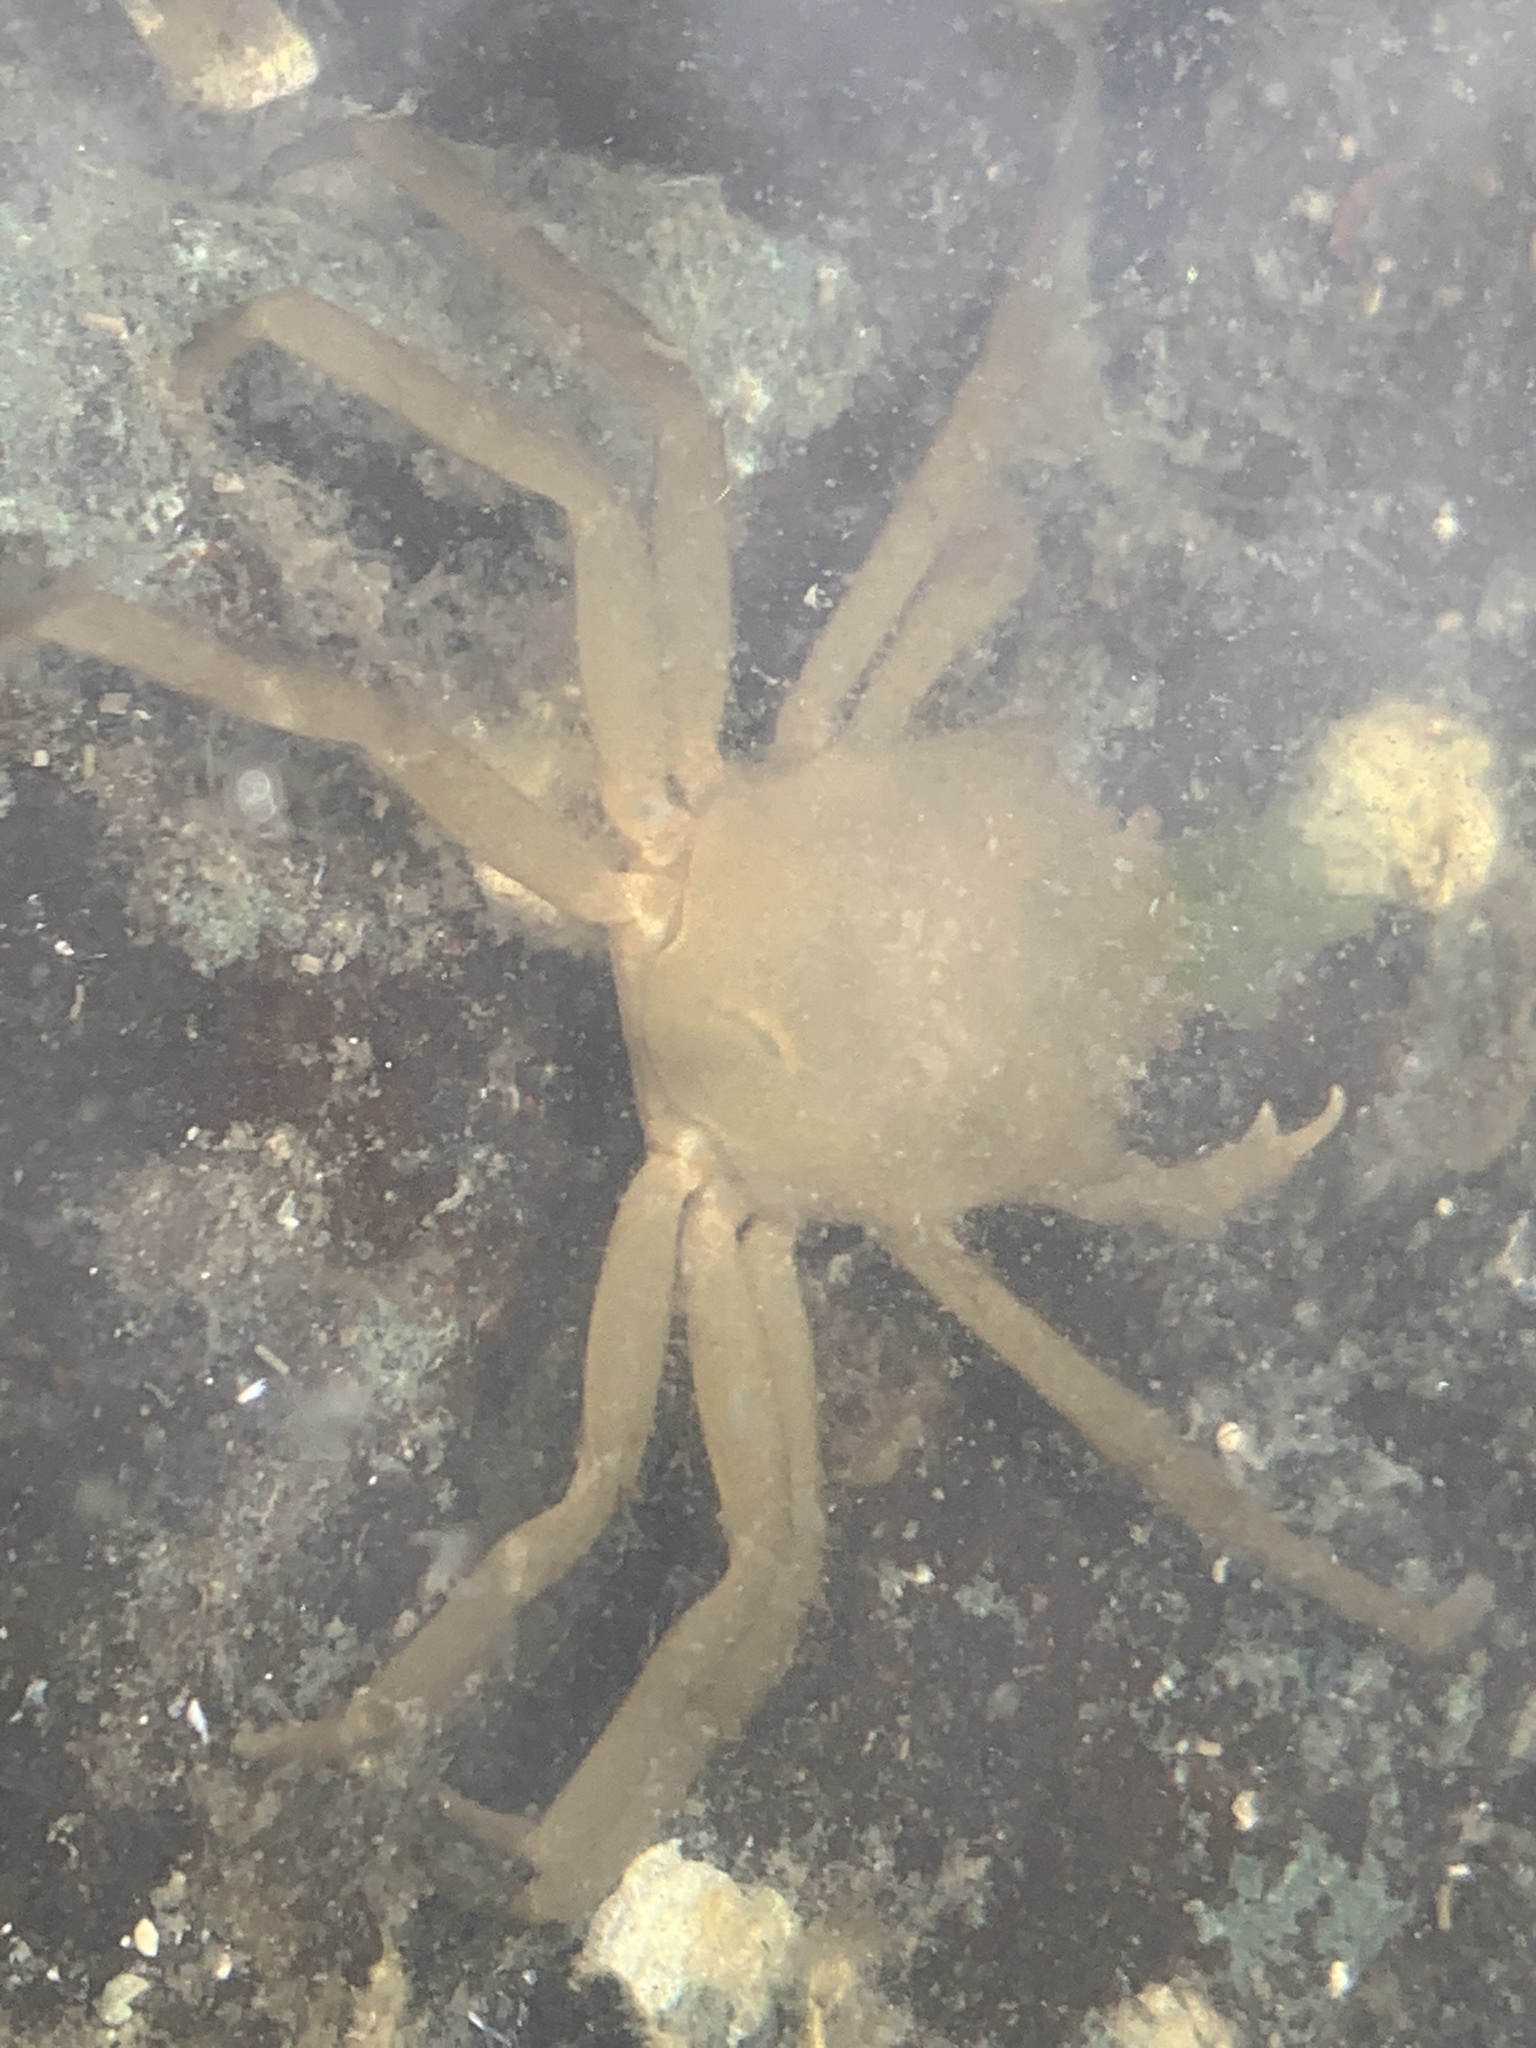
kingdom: Animalia
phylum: Arthropoda
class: Malacostraca
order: Decapoda
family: Epialtidae
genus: Pugettia
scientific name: Pugettia producta
